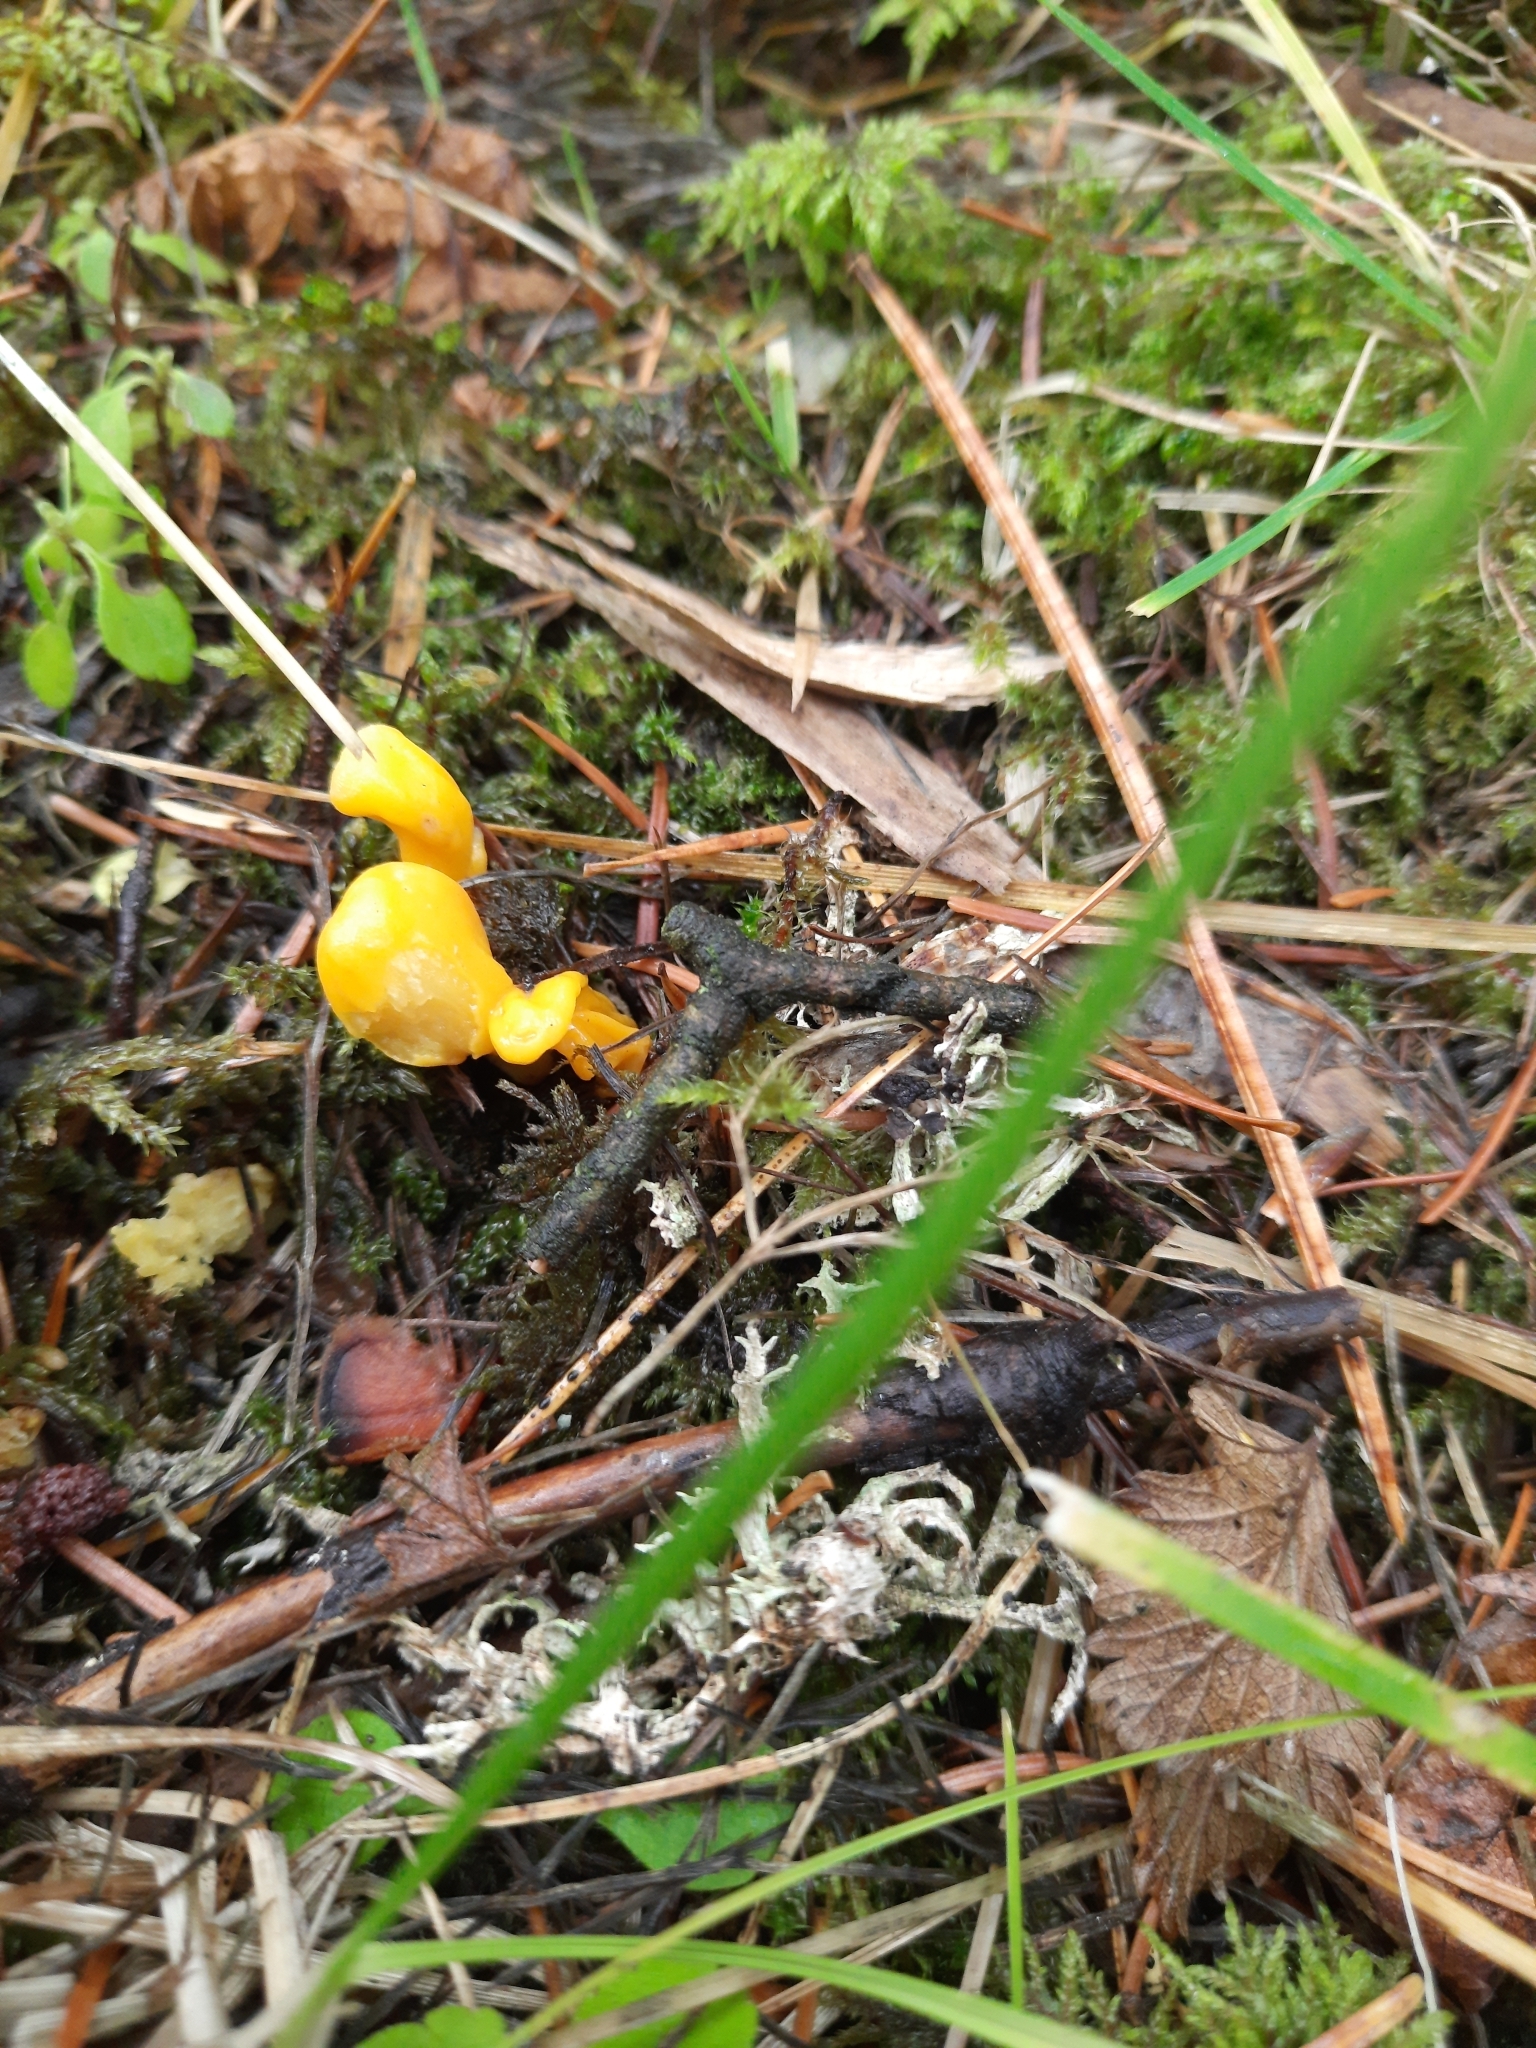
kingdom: Fungi
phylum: Ascomycota
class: Neolectomycetes
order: Neolectales
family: Neolectaceae
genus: Neolecta
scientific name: Neolecta vitellina
